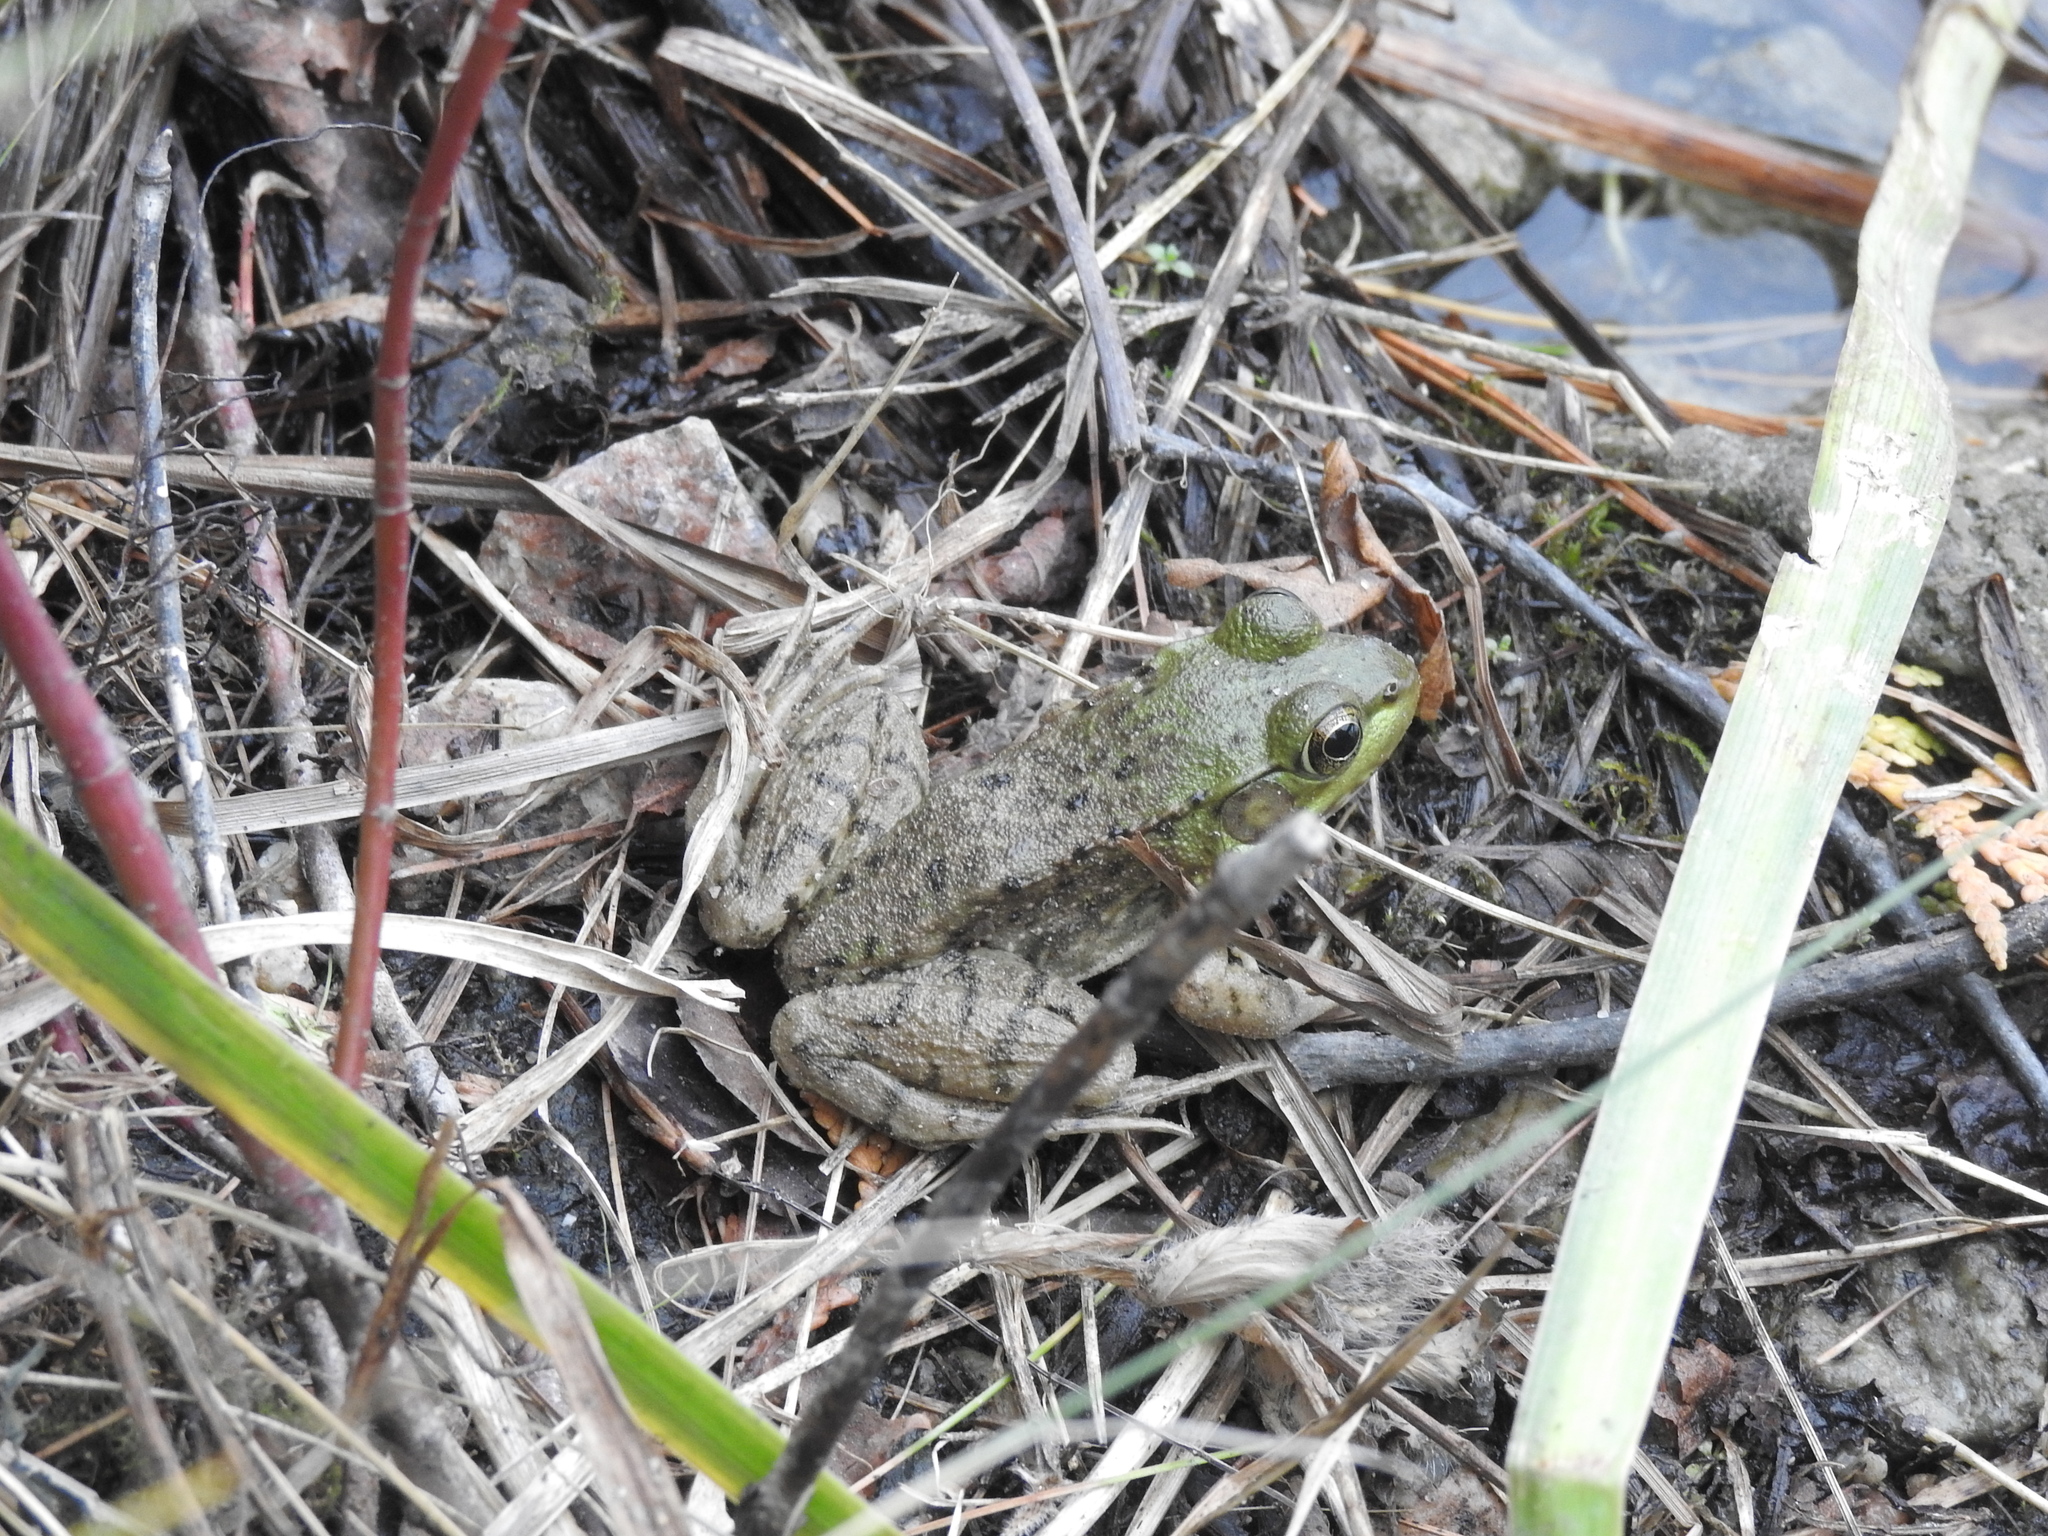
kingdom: Animalia
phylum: Chordata
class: Amphibia
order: Anura
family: Ranidae
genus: Lithobates
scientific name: Lithobates clamitans
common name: Green frog
